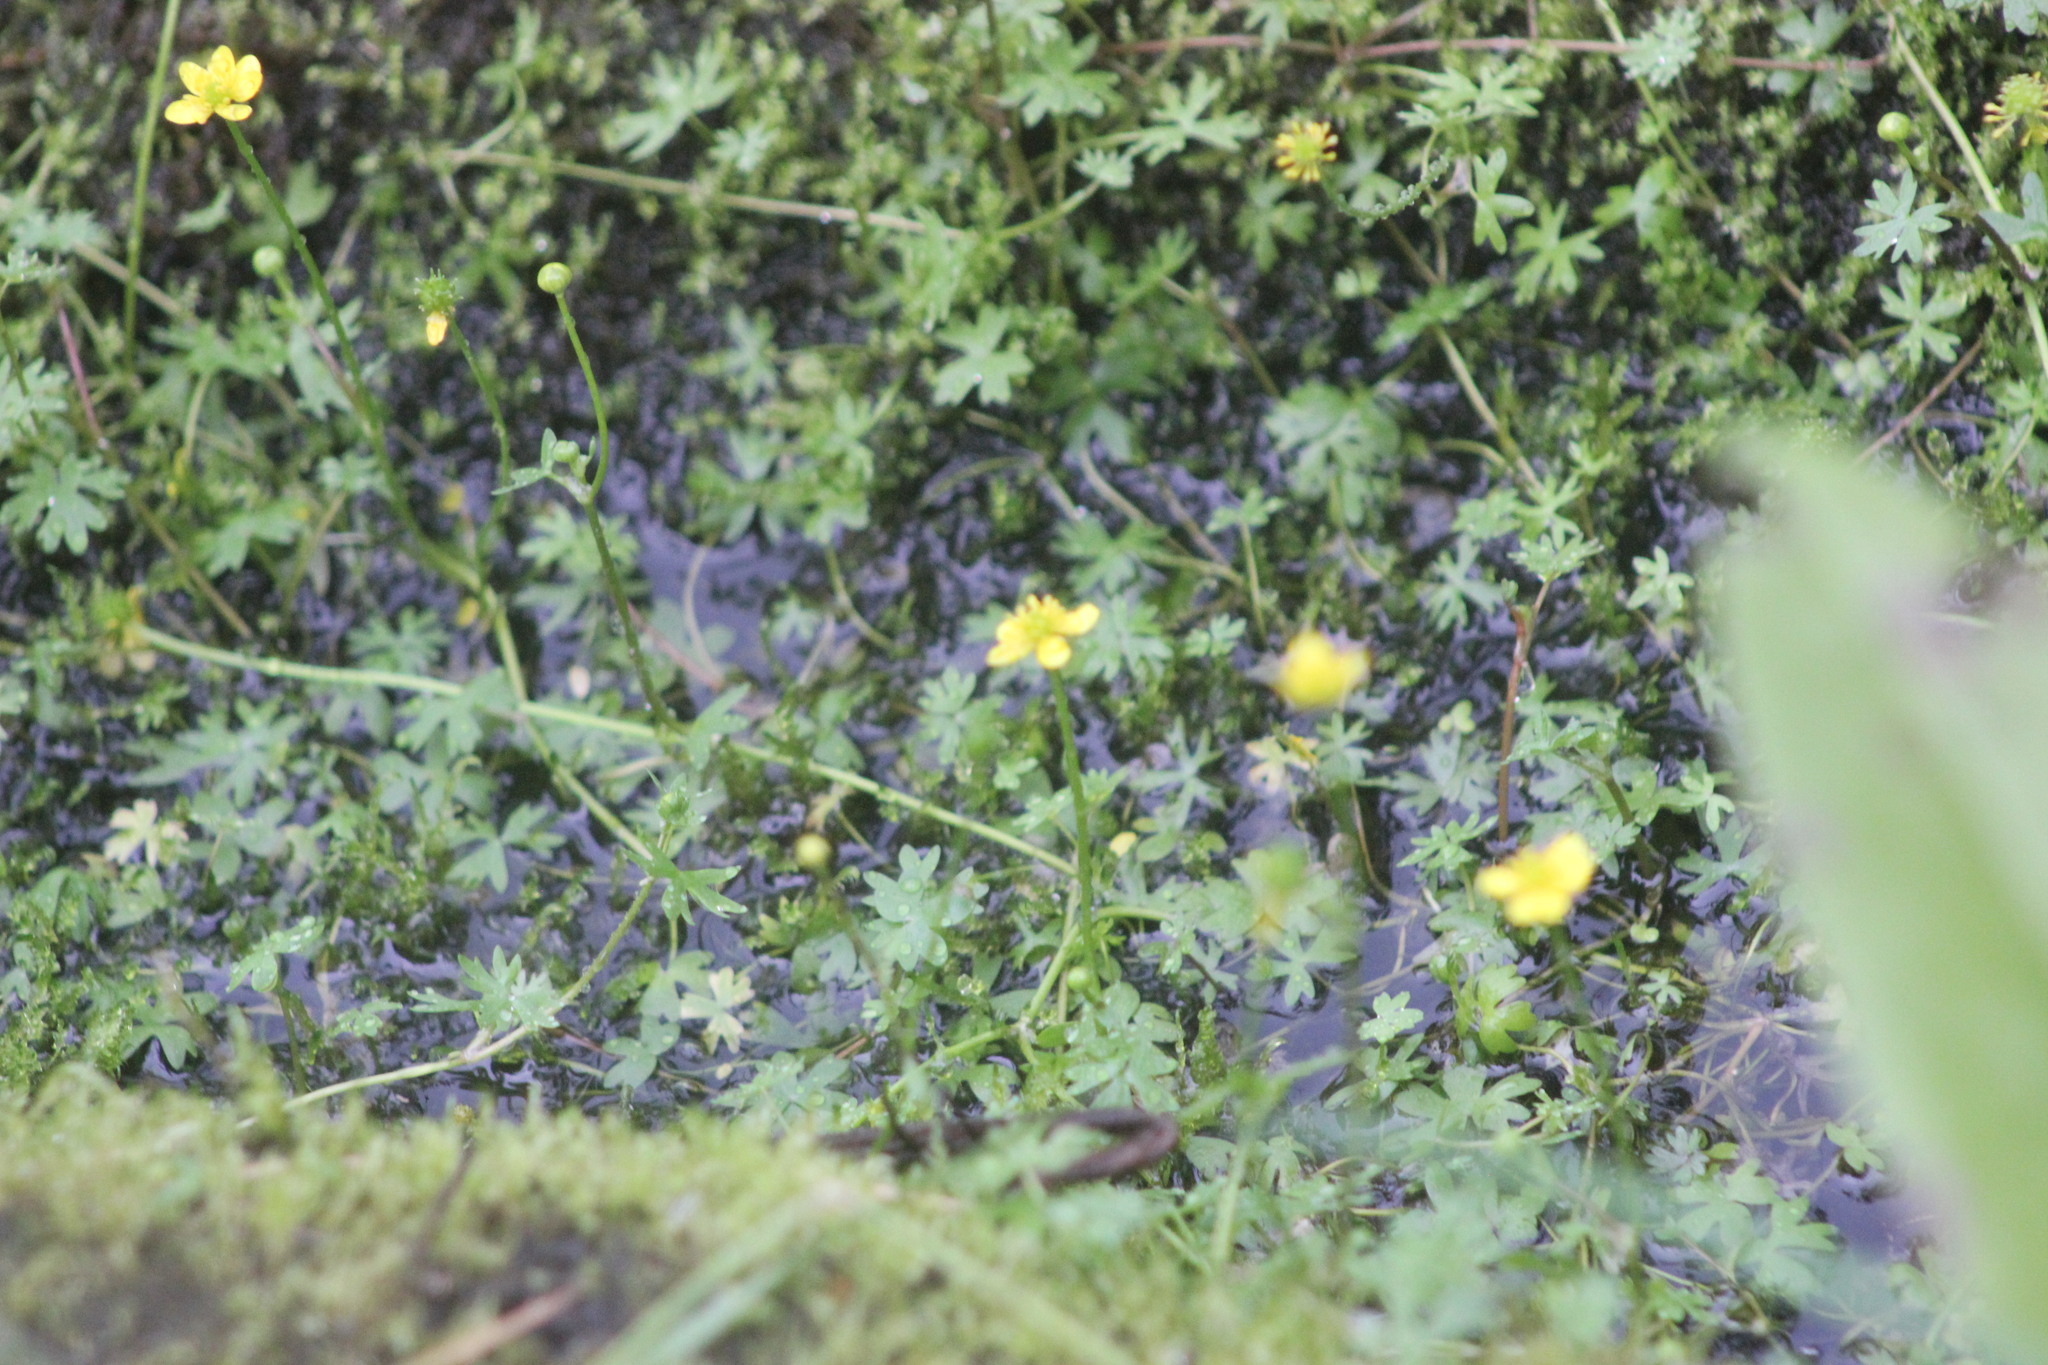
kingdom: Plantae
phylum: Tracheophyta
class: Magnoliopsida
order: Ranunculales
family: Ranunculaceae
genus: Ranunculus
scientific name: Ranunculus gmelinii
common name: Gmelin's buttercup
